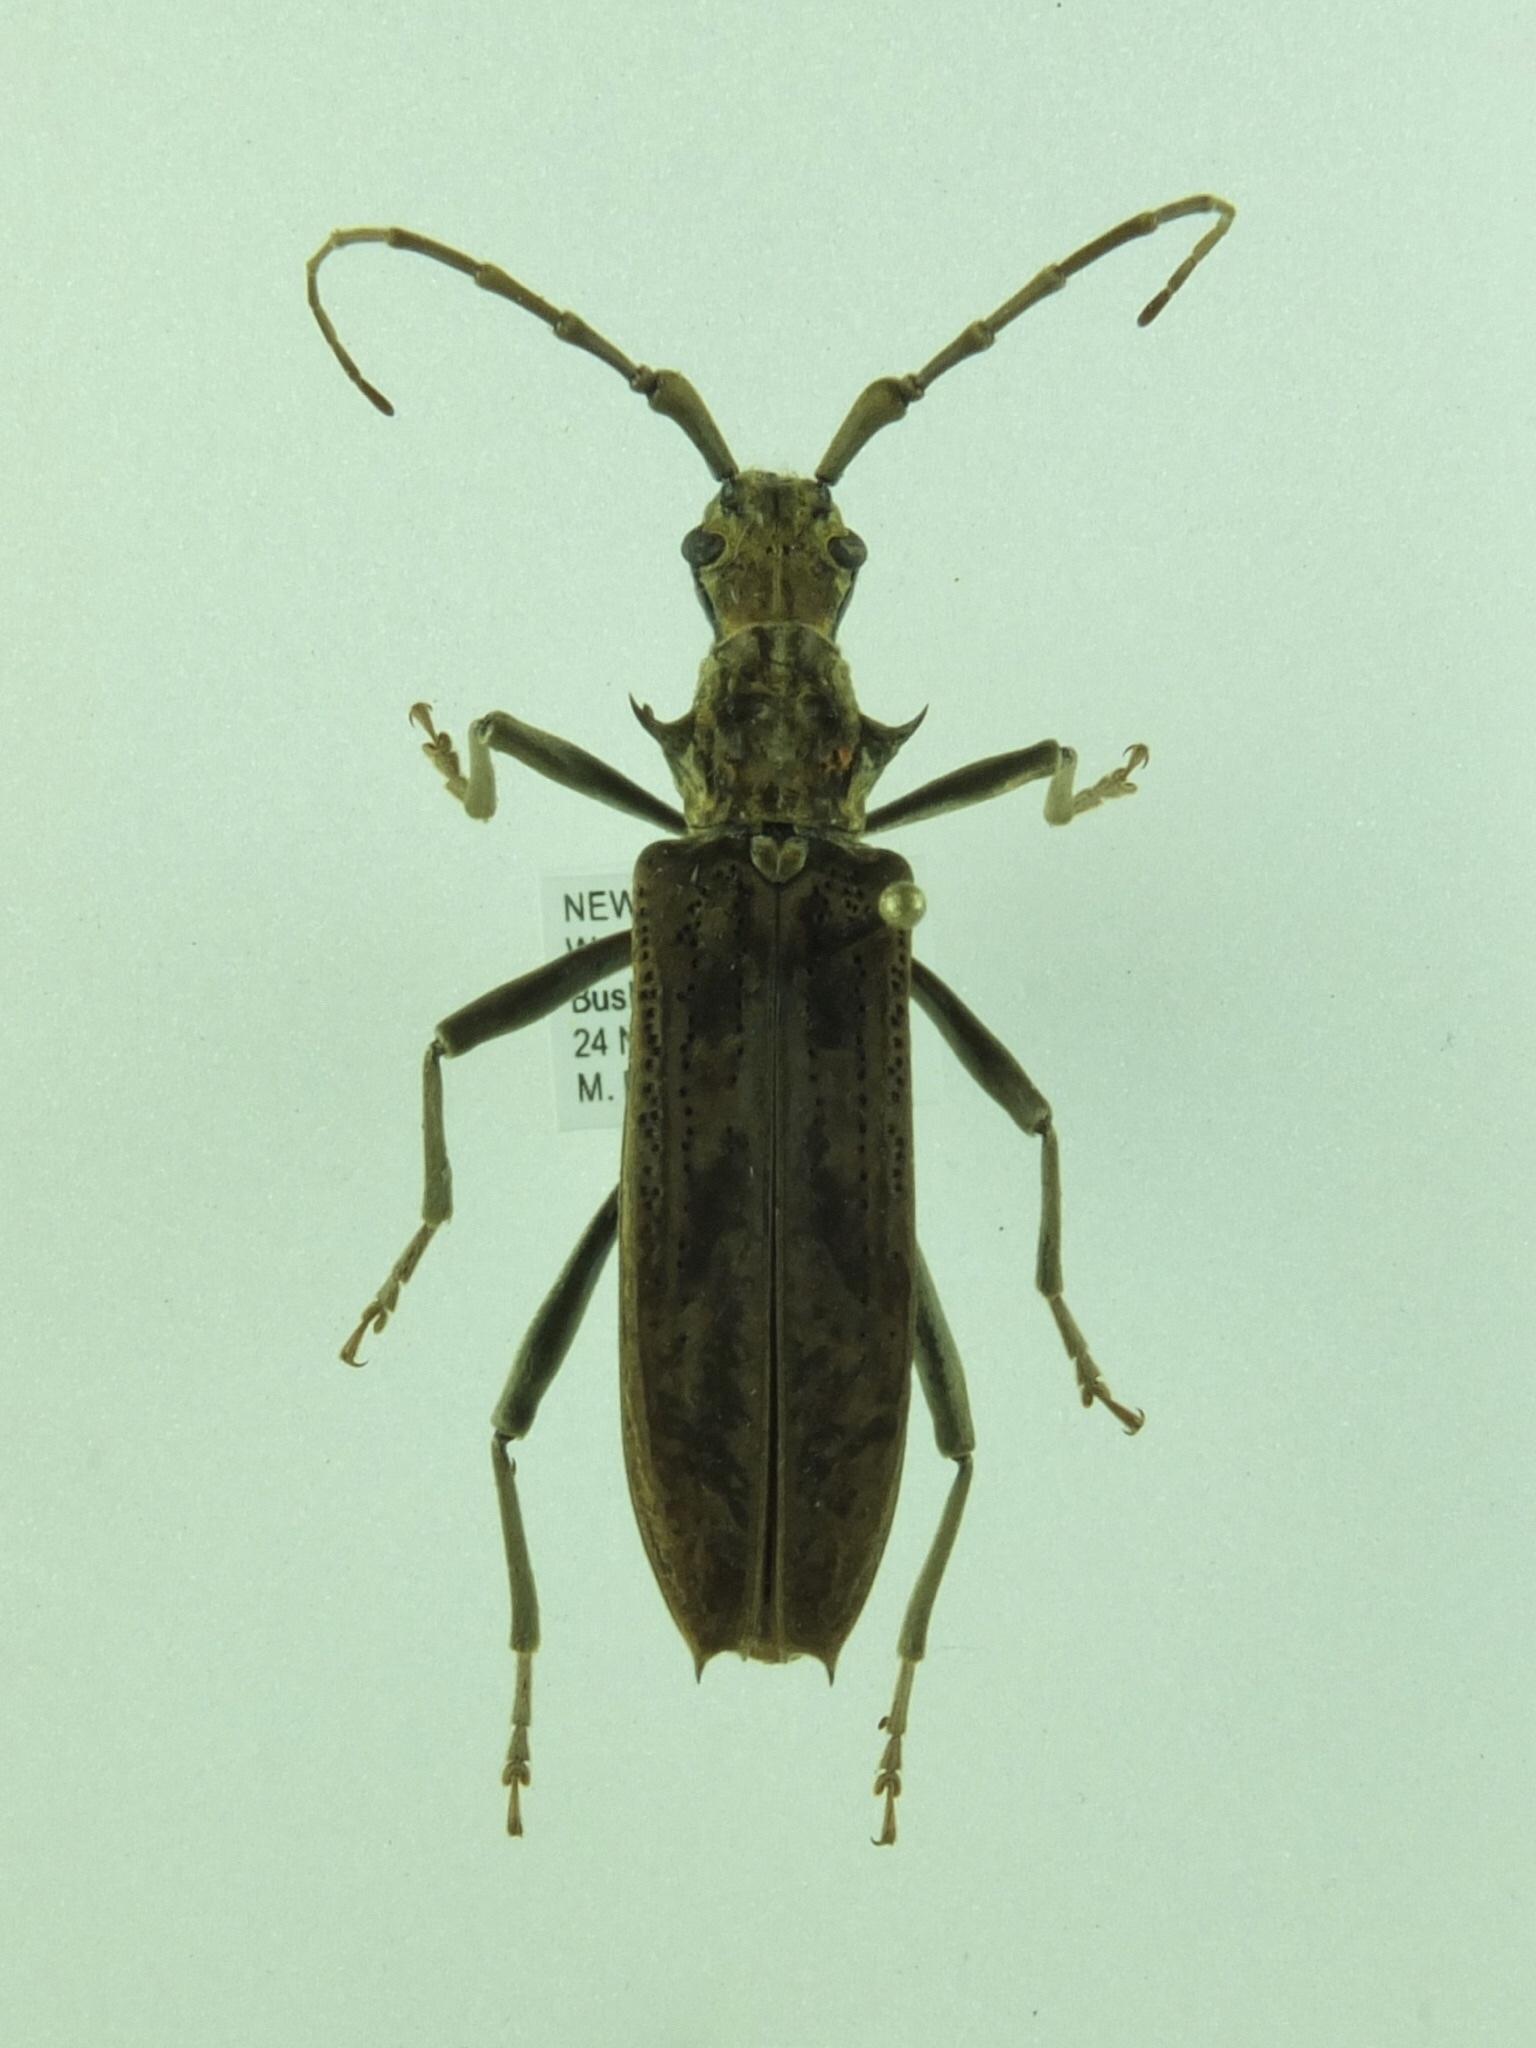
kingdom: Animalia
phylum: Arthropoda
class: Insecta
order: Coleoptera
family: Cerambycidae
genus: Blosyropus
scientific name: Blosyropus spinosus
